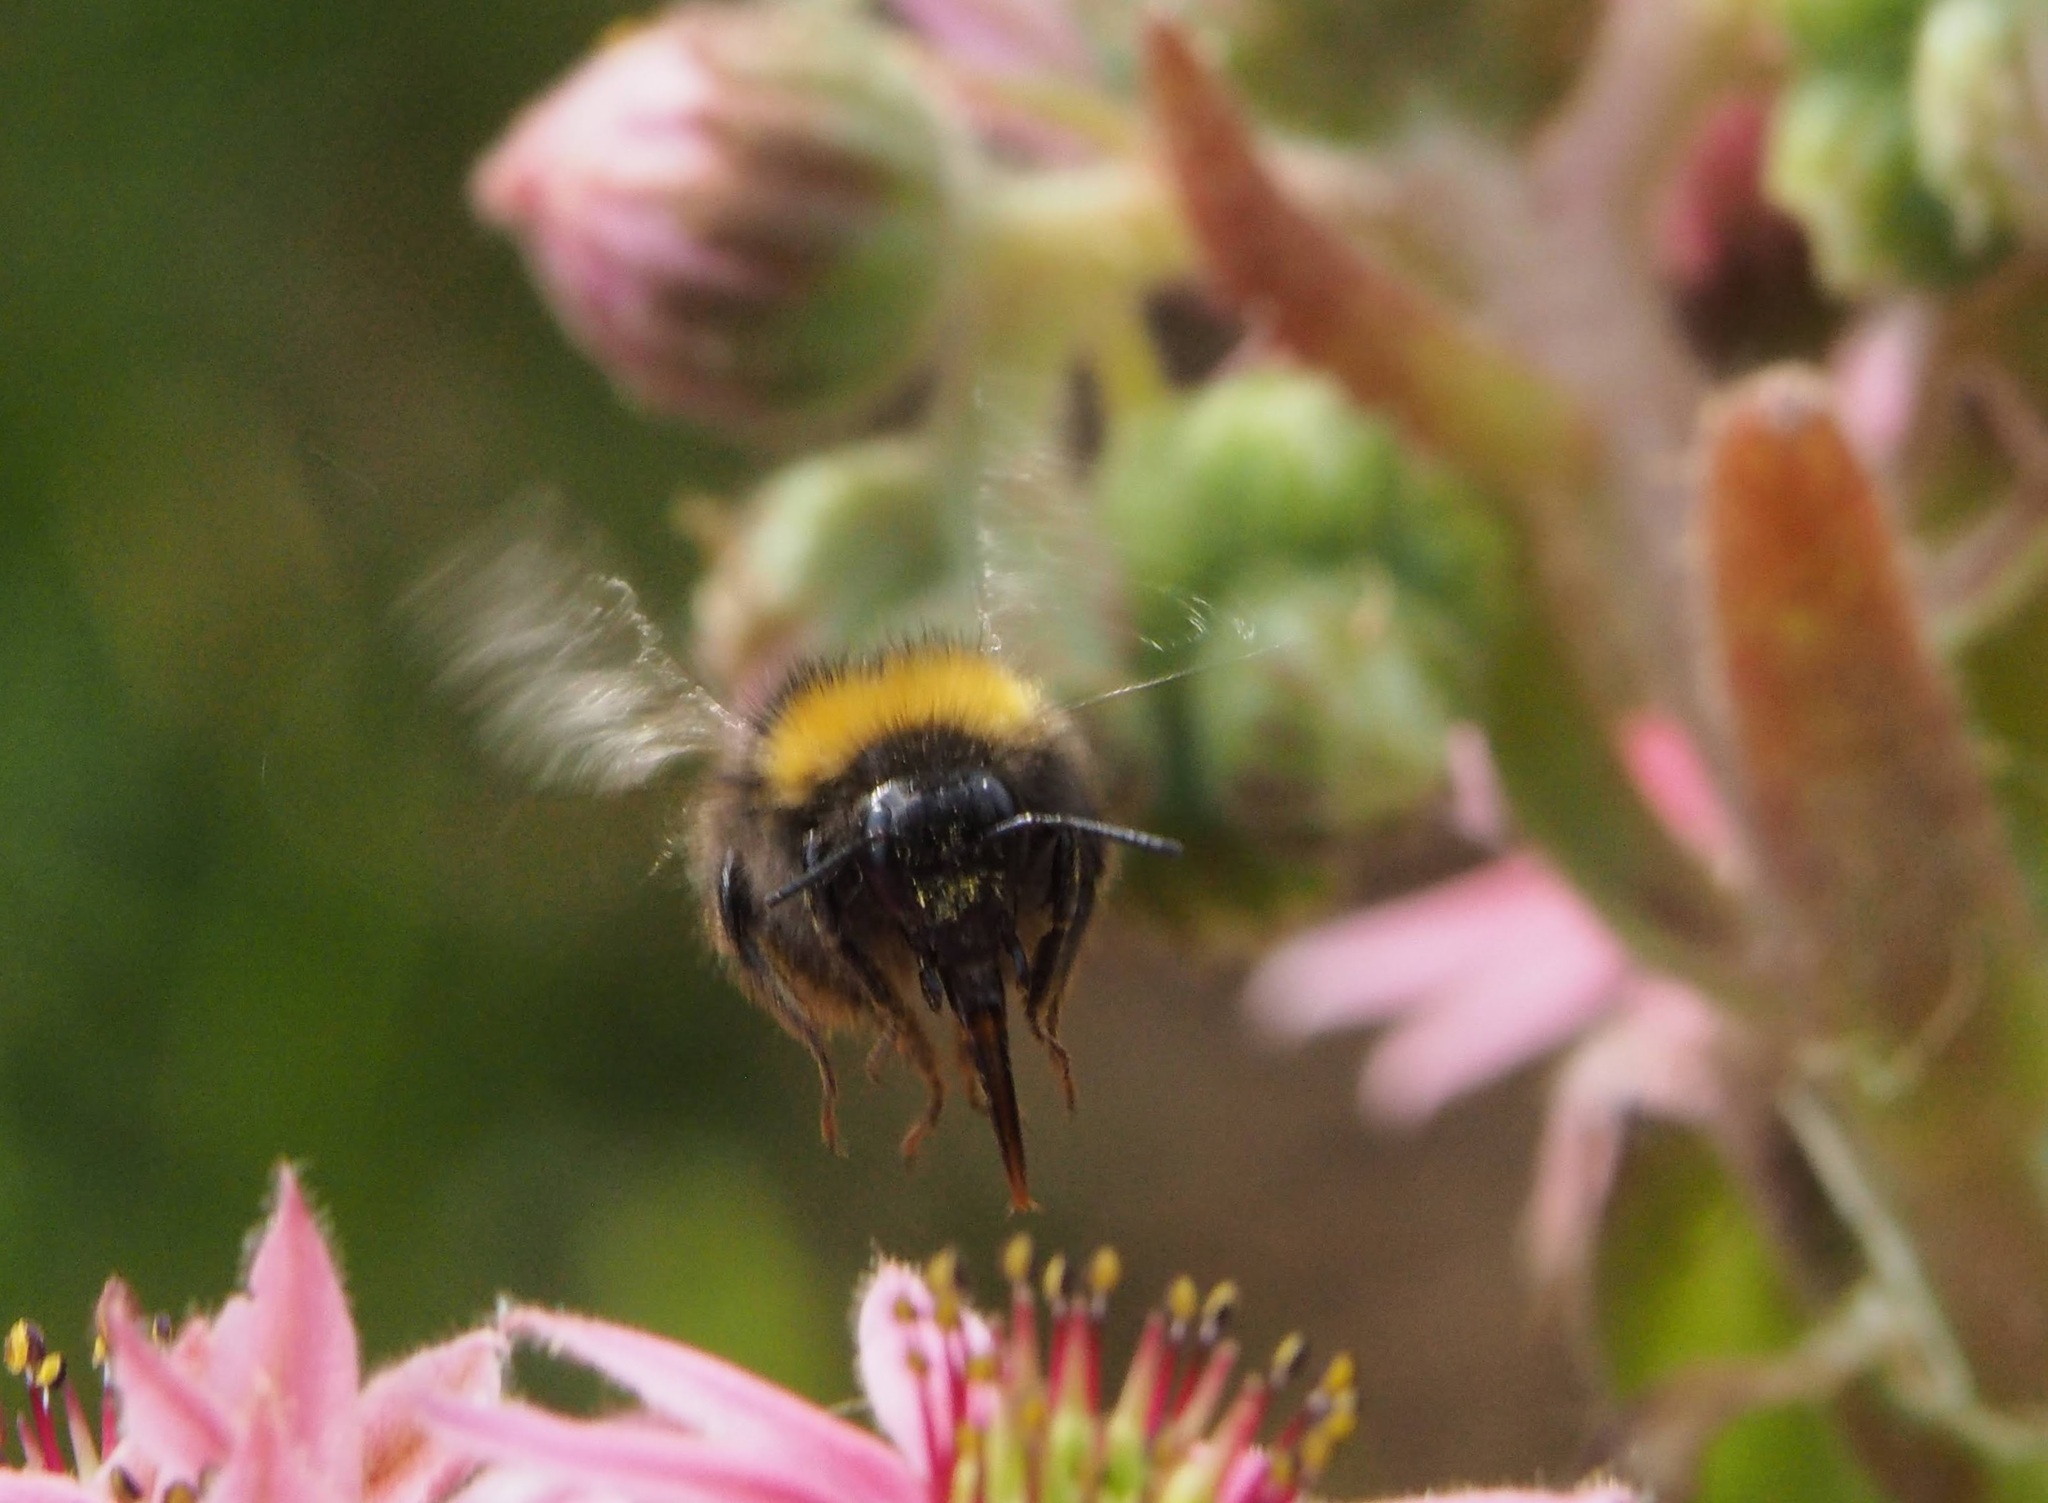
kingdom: Animalia
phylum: Arthropoda
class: Insecta
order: Hymenoptera
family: Apidae
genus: Bombus
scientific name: Bombus pratorum
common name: Early humble-bee
